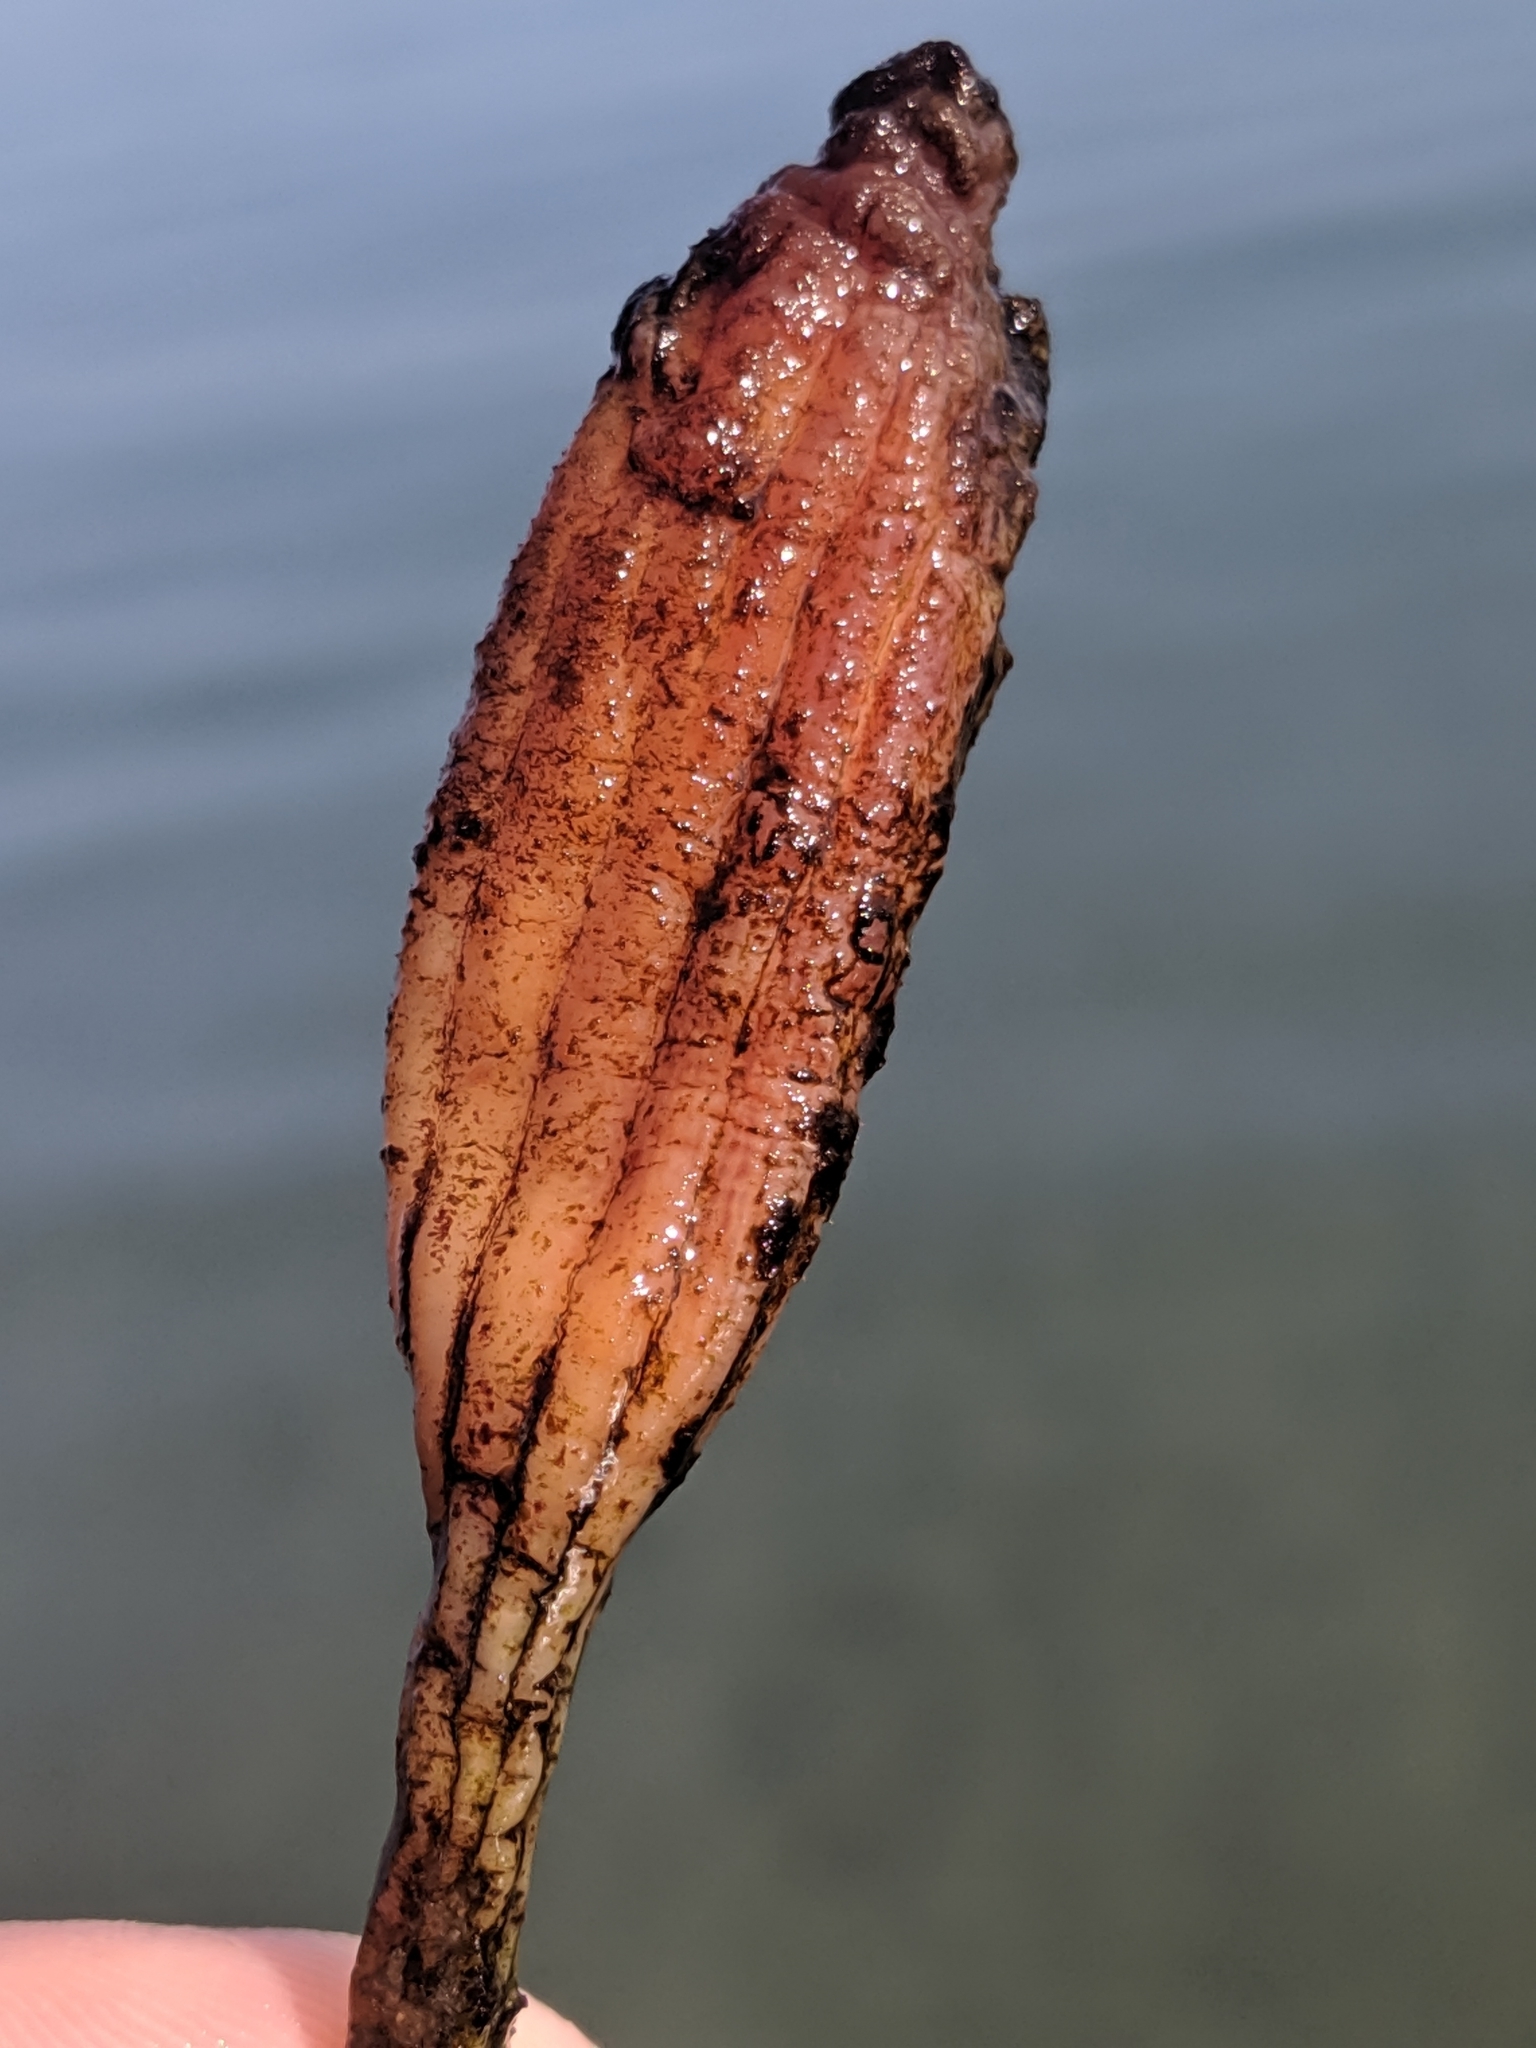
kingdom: Animalia
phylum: Chordata
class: Ascidiacea
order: Stolidobranchia
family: Styelidae
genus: Styela
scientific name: Styela montereyensis
